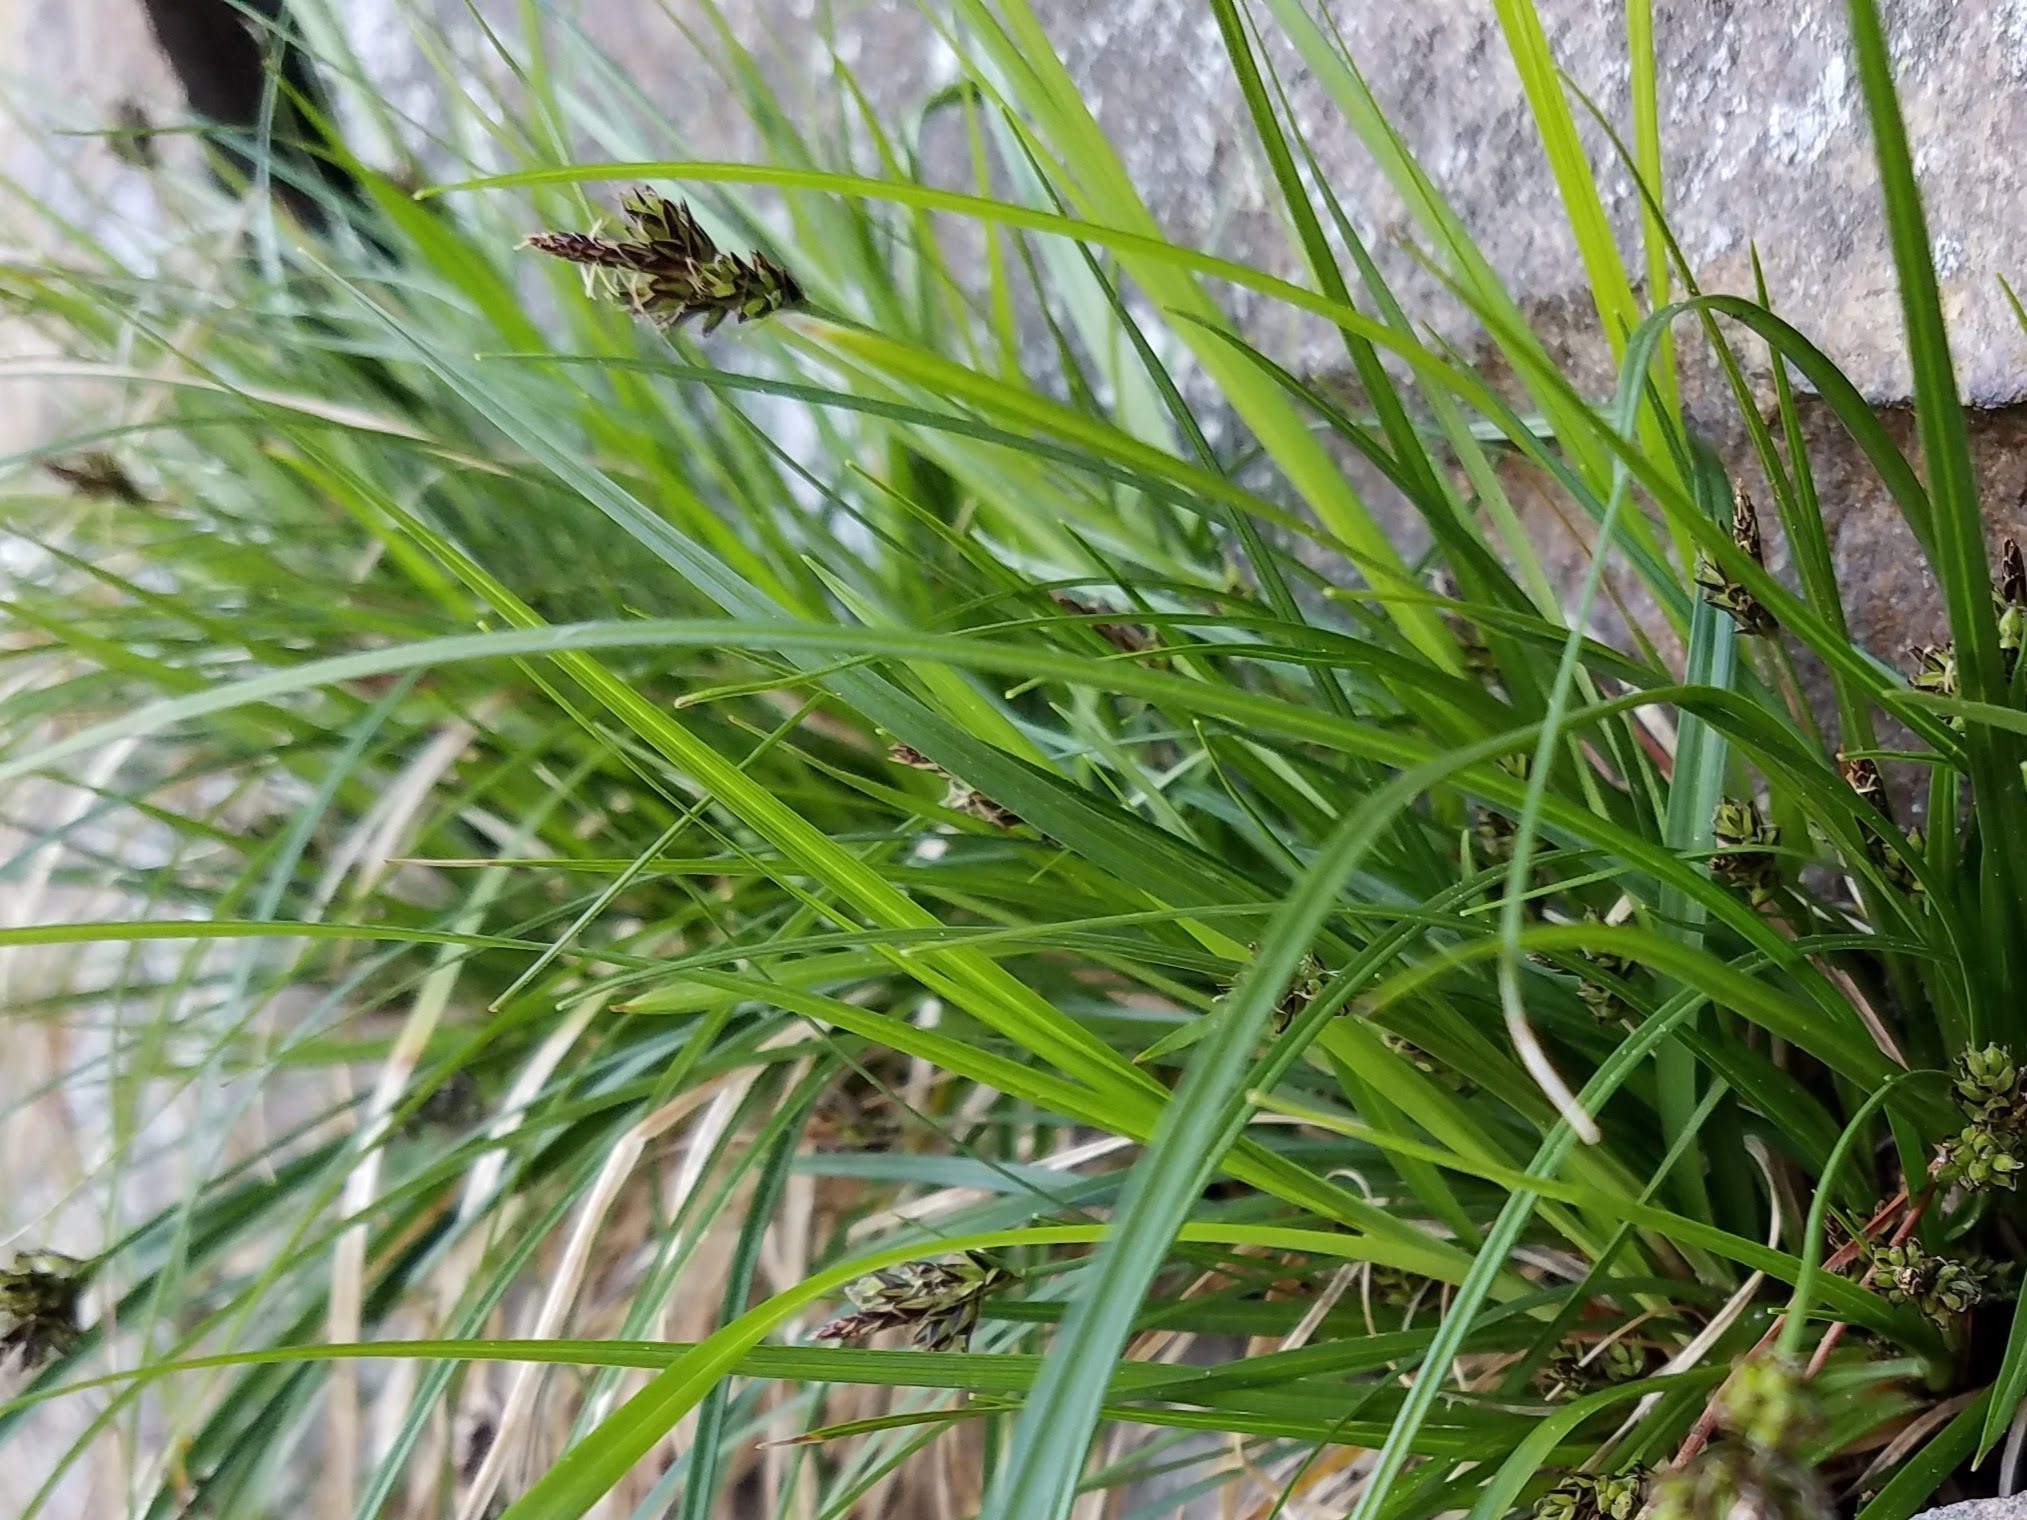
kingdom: Plantae
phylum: Tracheophyta
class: Liliopsida
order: Poales
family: Cyperaceae
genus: Carex
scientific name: Carex nigromarginata
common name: Black-edged sedge
